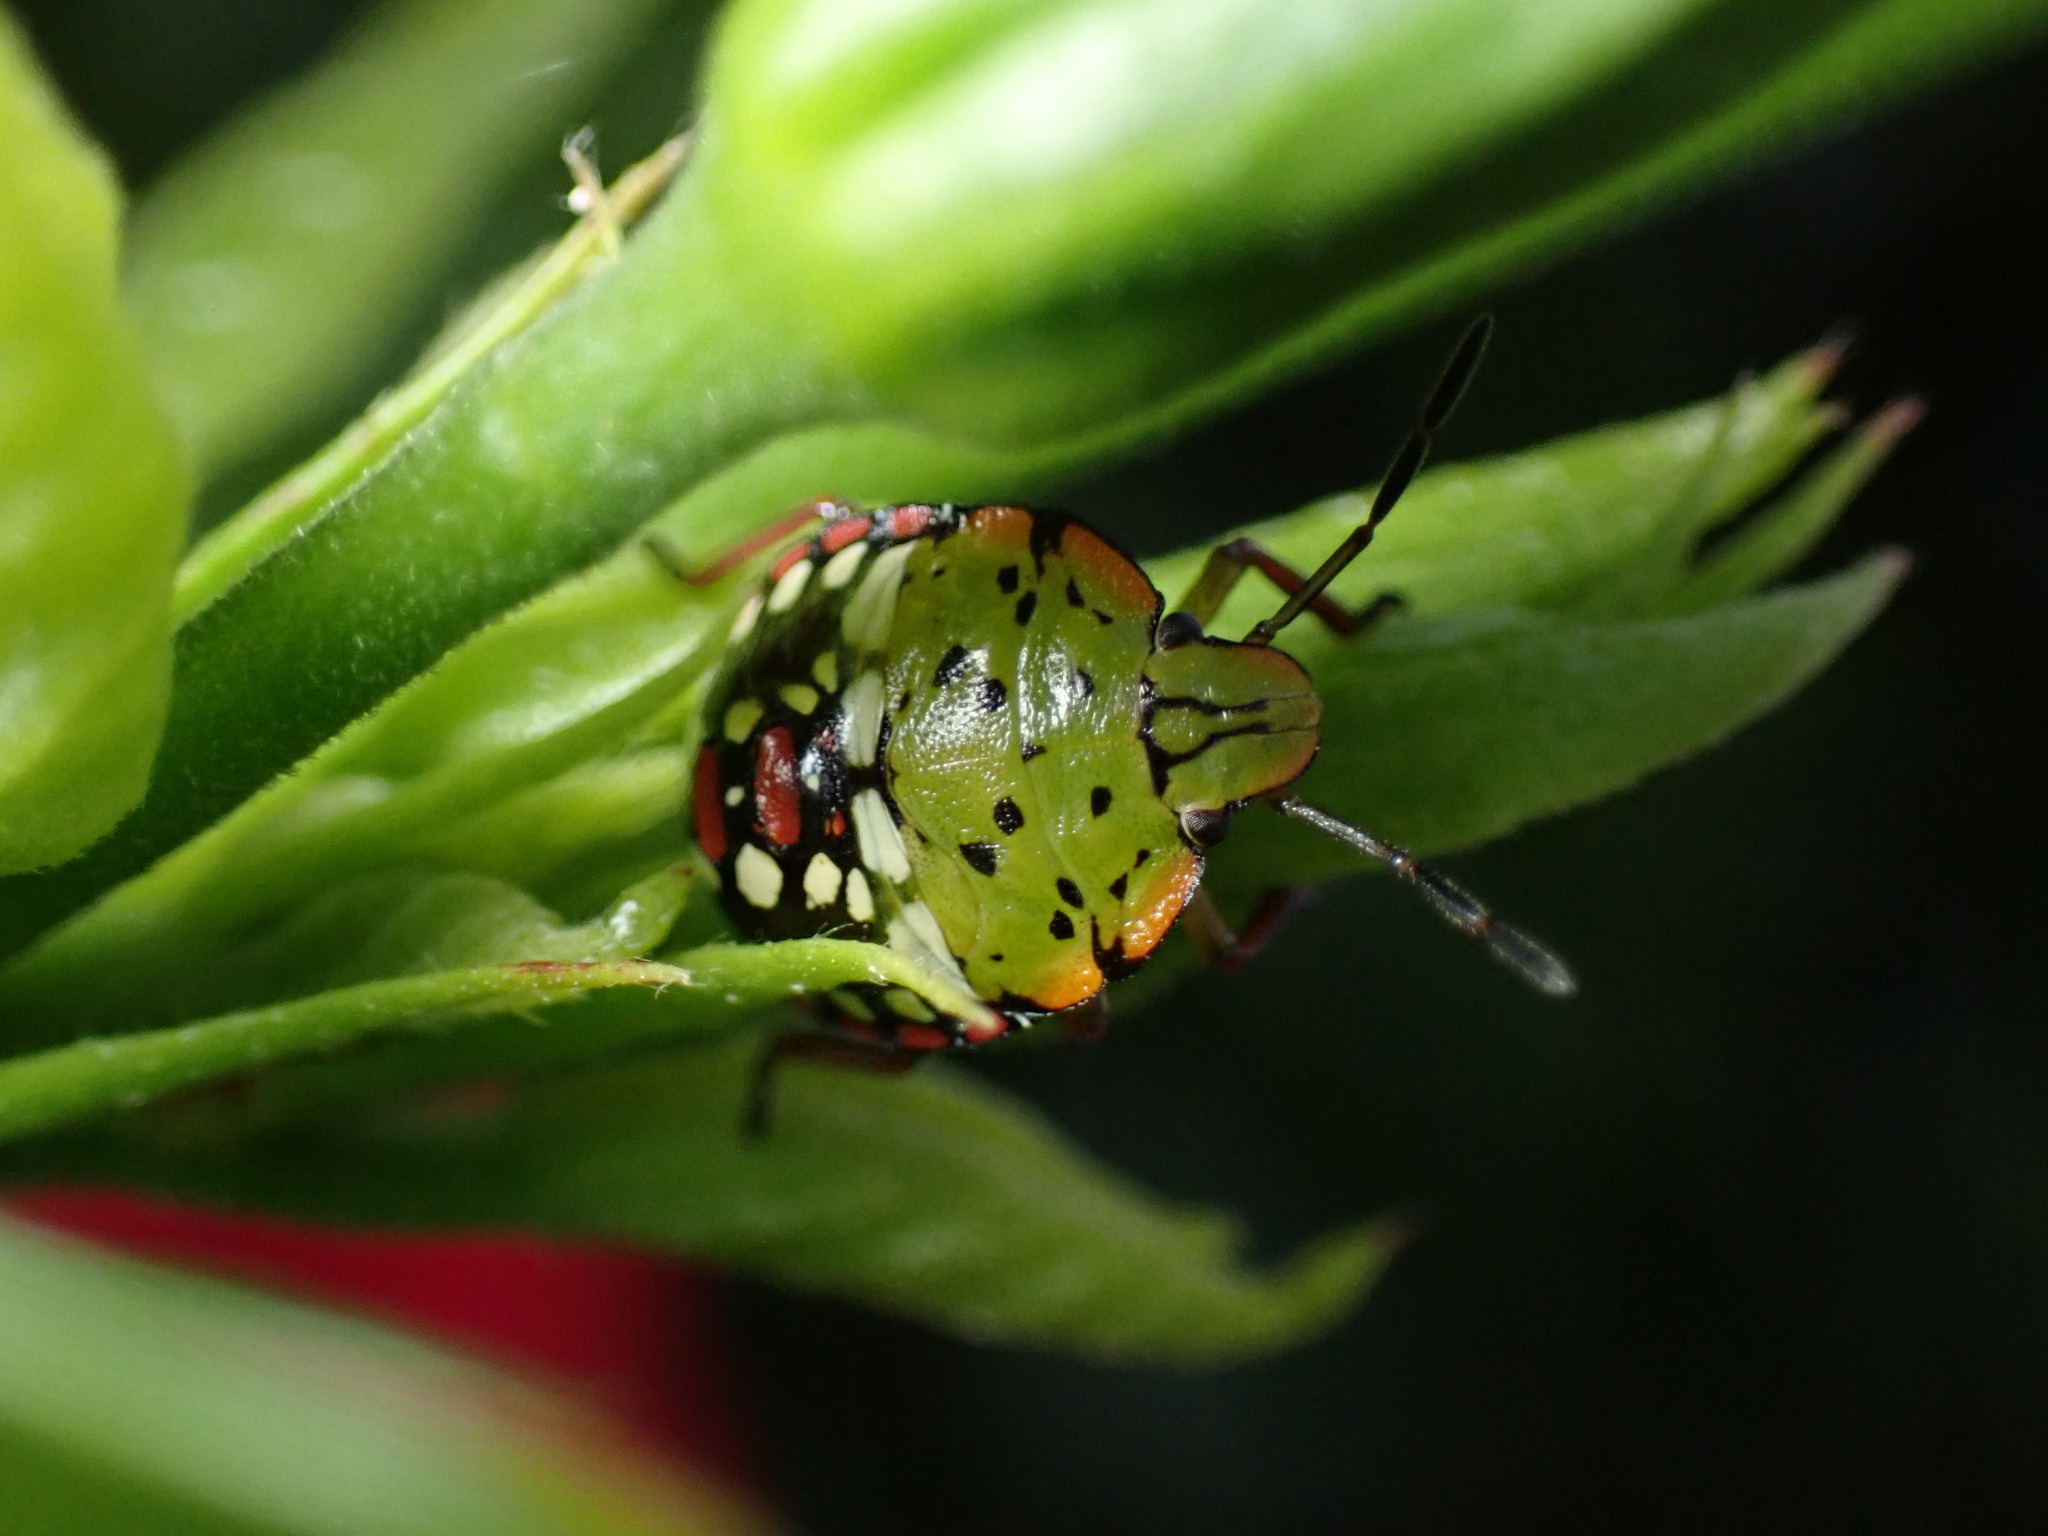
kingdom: Animalia
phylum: Arthropoda
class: Insecta
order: Hemiptera
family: Pentatomidae
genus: Nezara
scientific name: Nezara viridula
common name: Southern green stink bug
